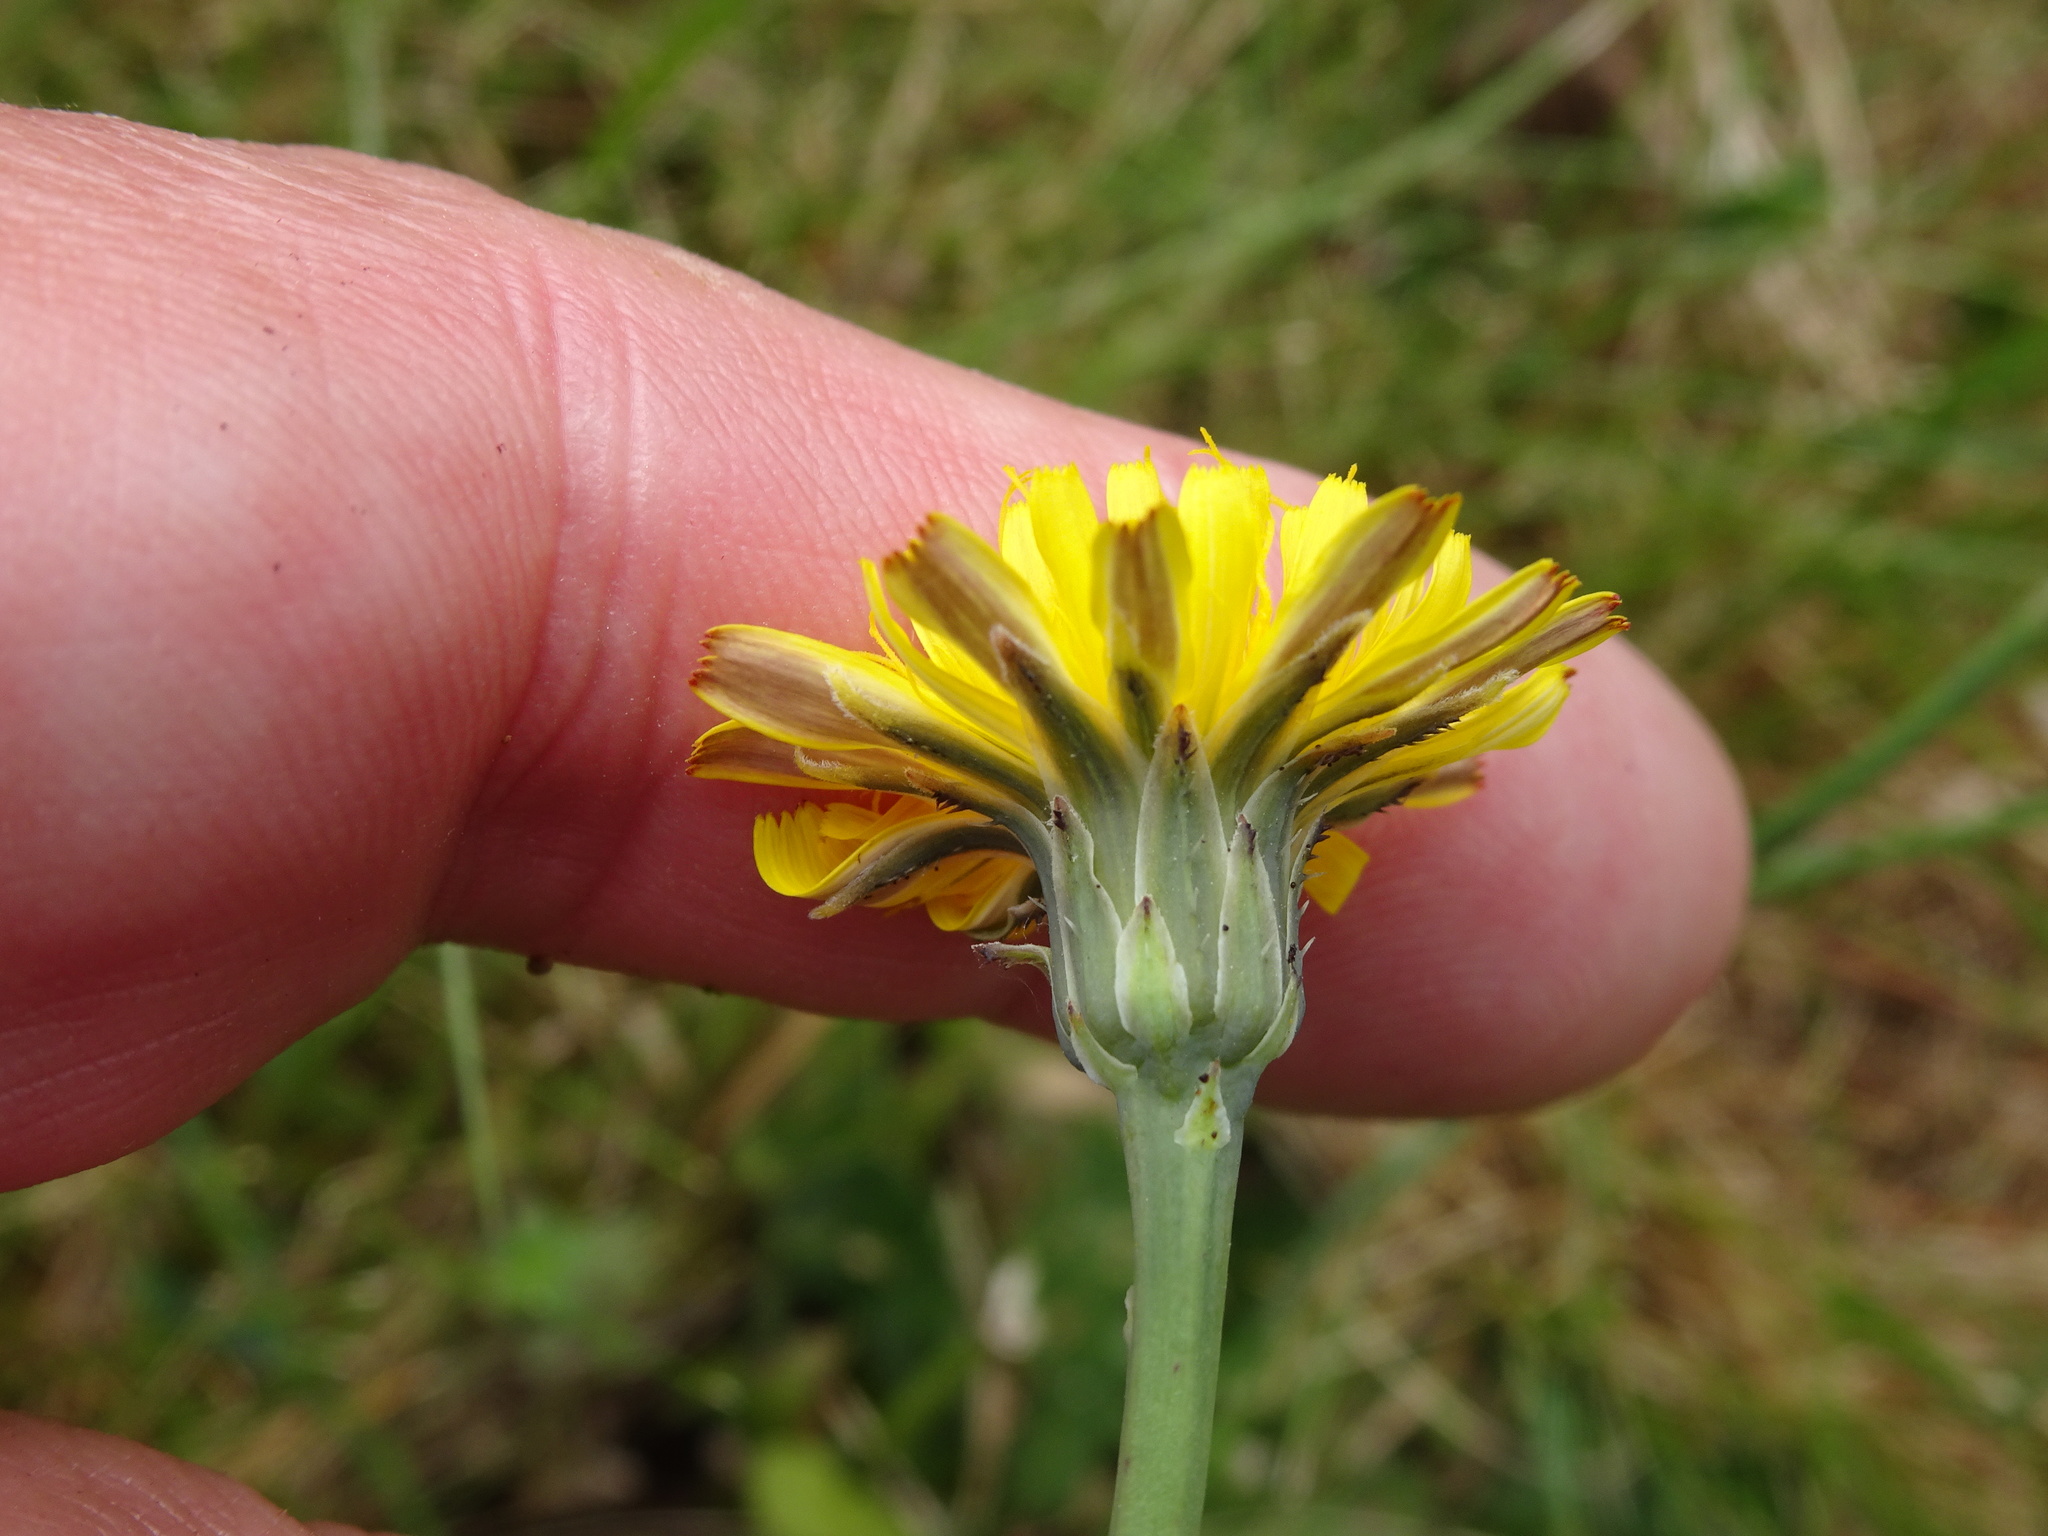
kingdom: Plantae
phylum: Tracheophyta
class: Magnoliopsida
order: Asterales
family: Asteraceae
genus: Hypochaeris
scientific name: Hypochaeris radicata
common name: Flatweed
